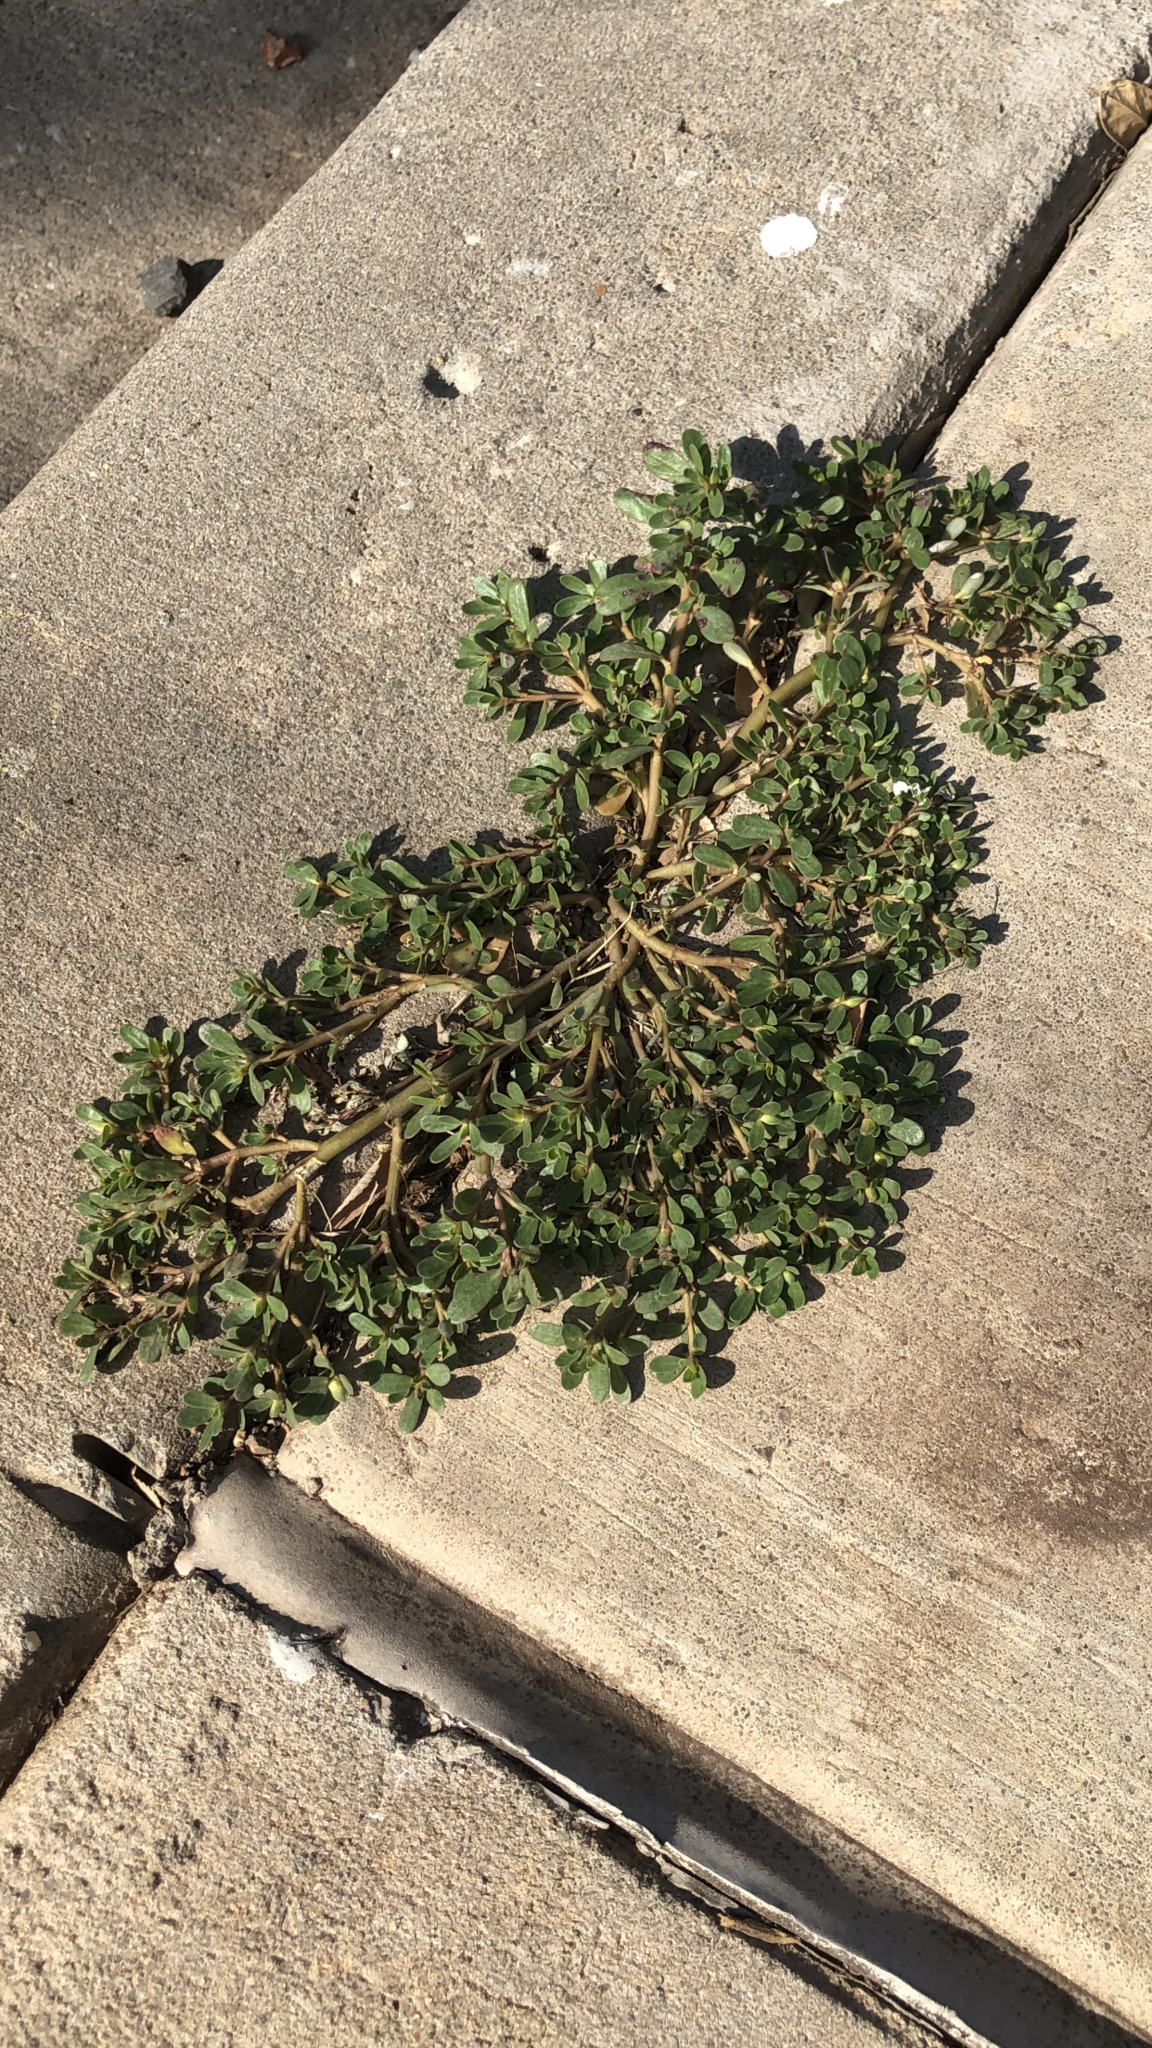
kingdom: Plantae
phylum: Tracheophyta
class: Magnoliopsida
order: Caryophyllales
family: Portulacaceae
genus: Portulaca
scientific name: Portulaca oleracea
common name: Common purslane
